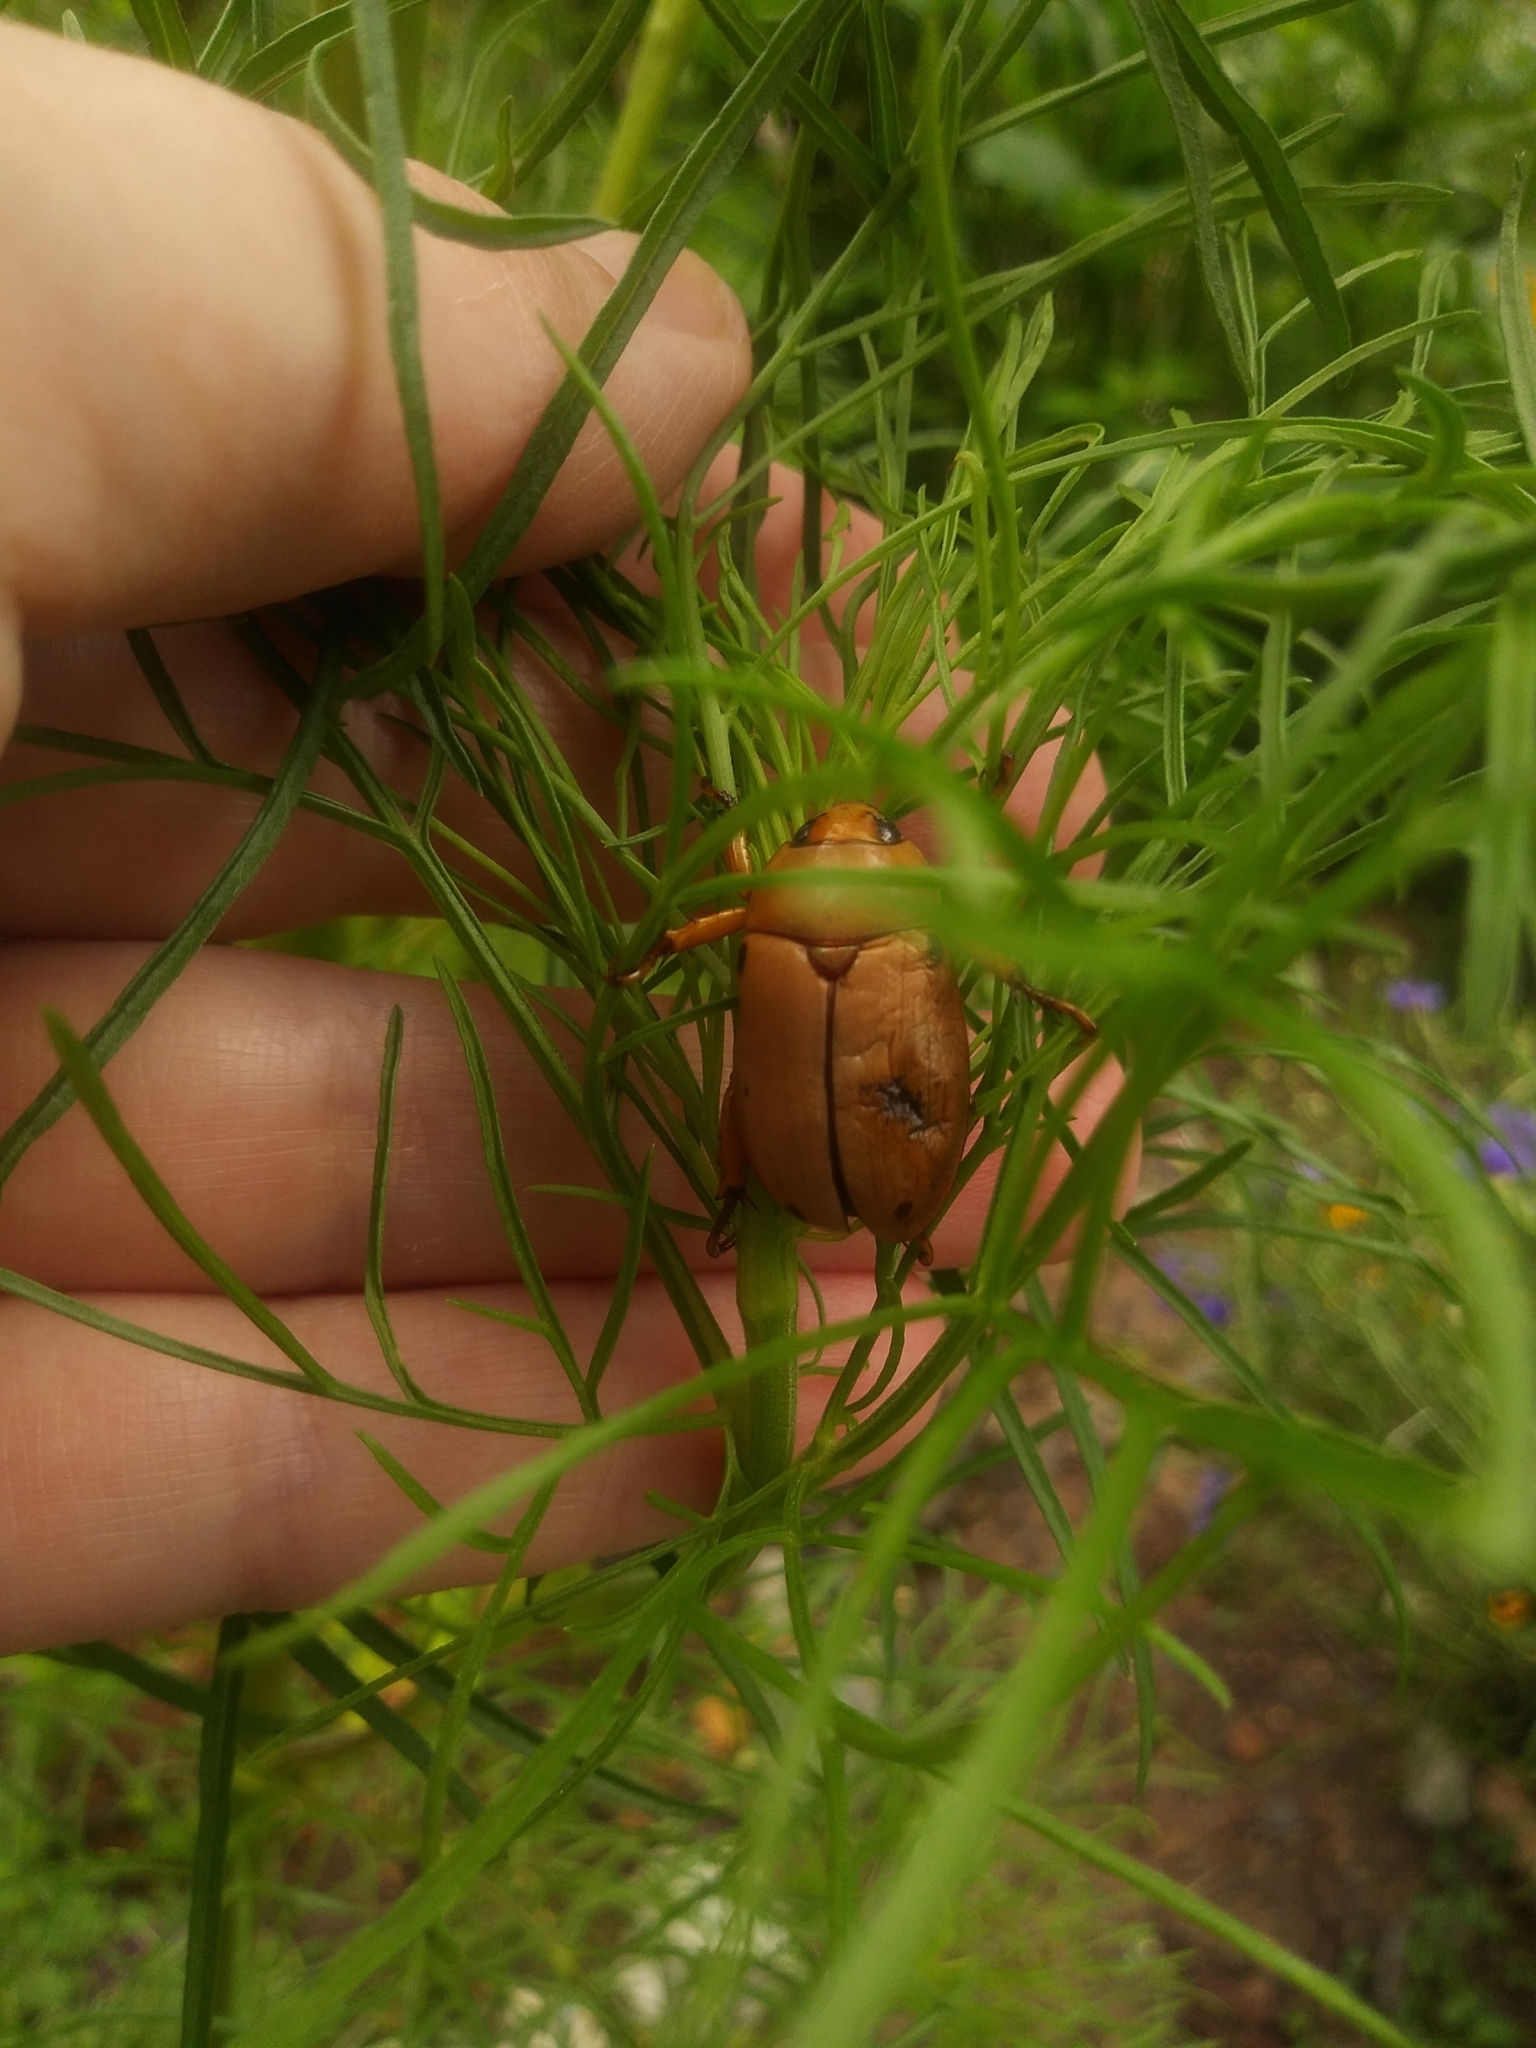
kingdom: Animalia
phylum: Arthropoda
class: Insecta
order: Coleoptera
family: Scarabaeidae
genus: Pelidnota
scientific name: Pelidnota punctata
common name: Grapevine beetle
